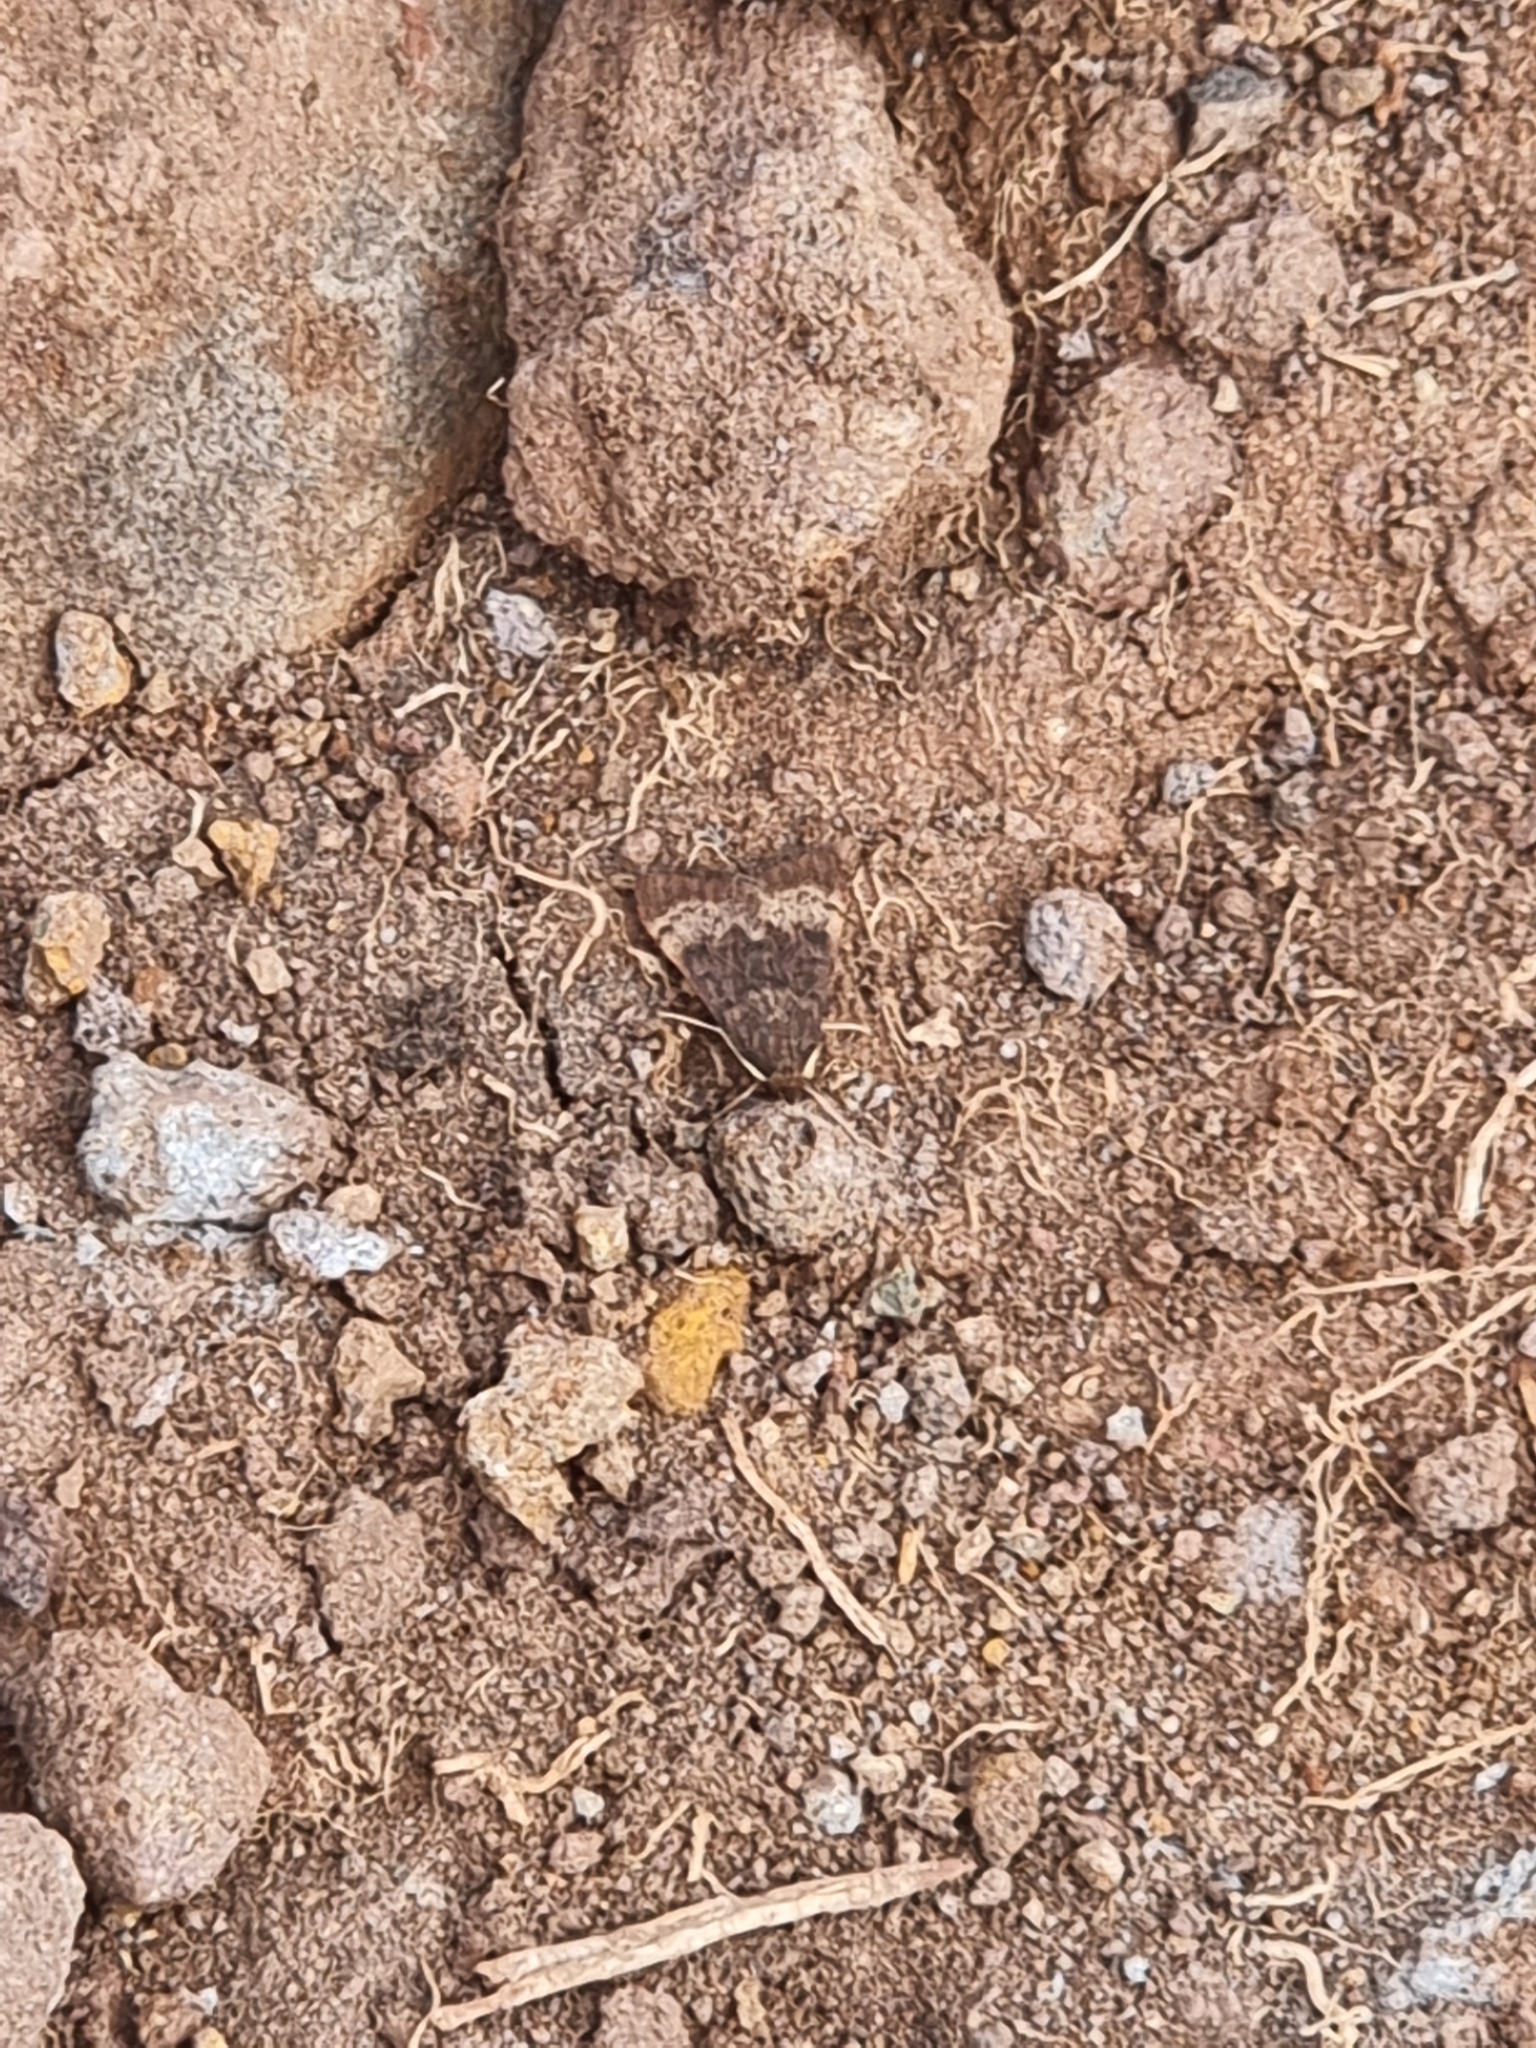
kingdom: Animalia
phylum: Arthropoda
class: Insecta
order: Lepidoptera
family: Crambidae
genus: Uresiphita
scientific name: Uresiphita gilvata
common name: Yellow-underwing pearl
